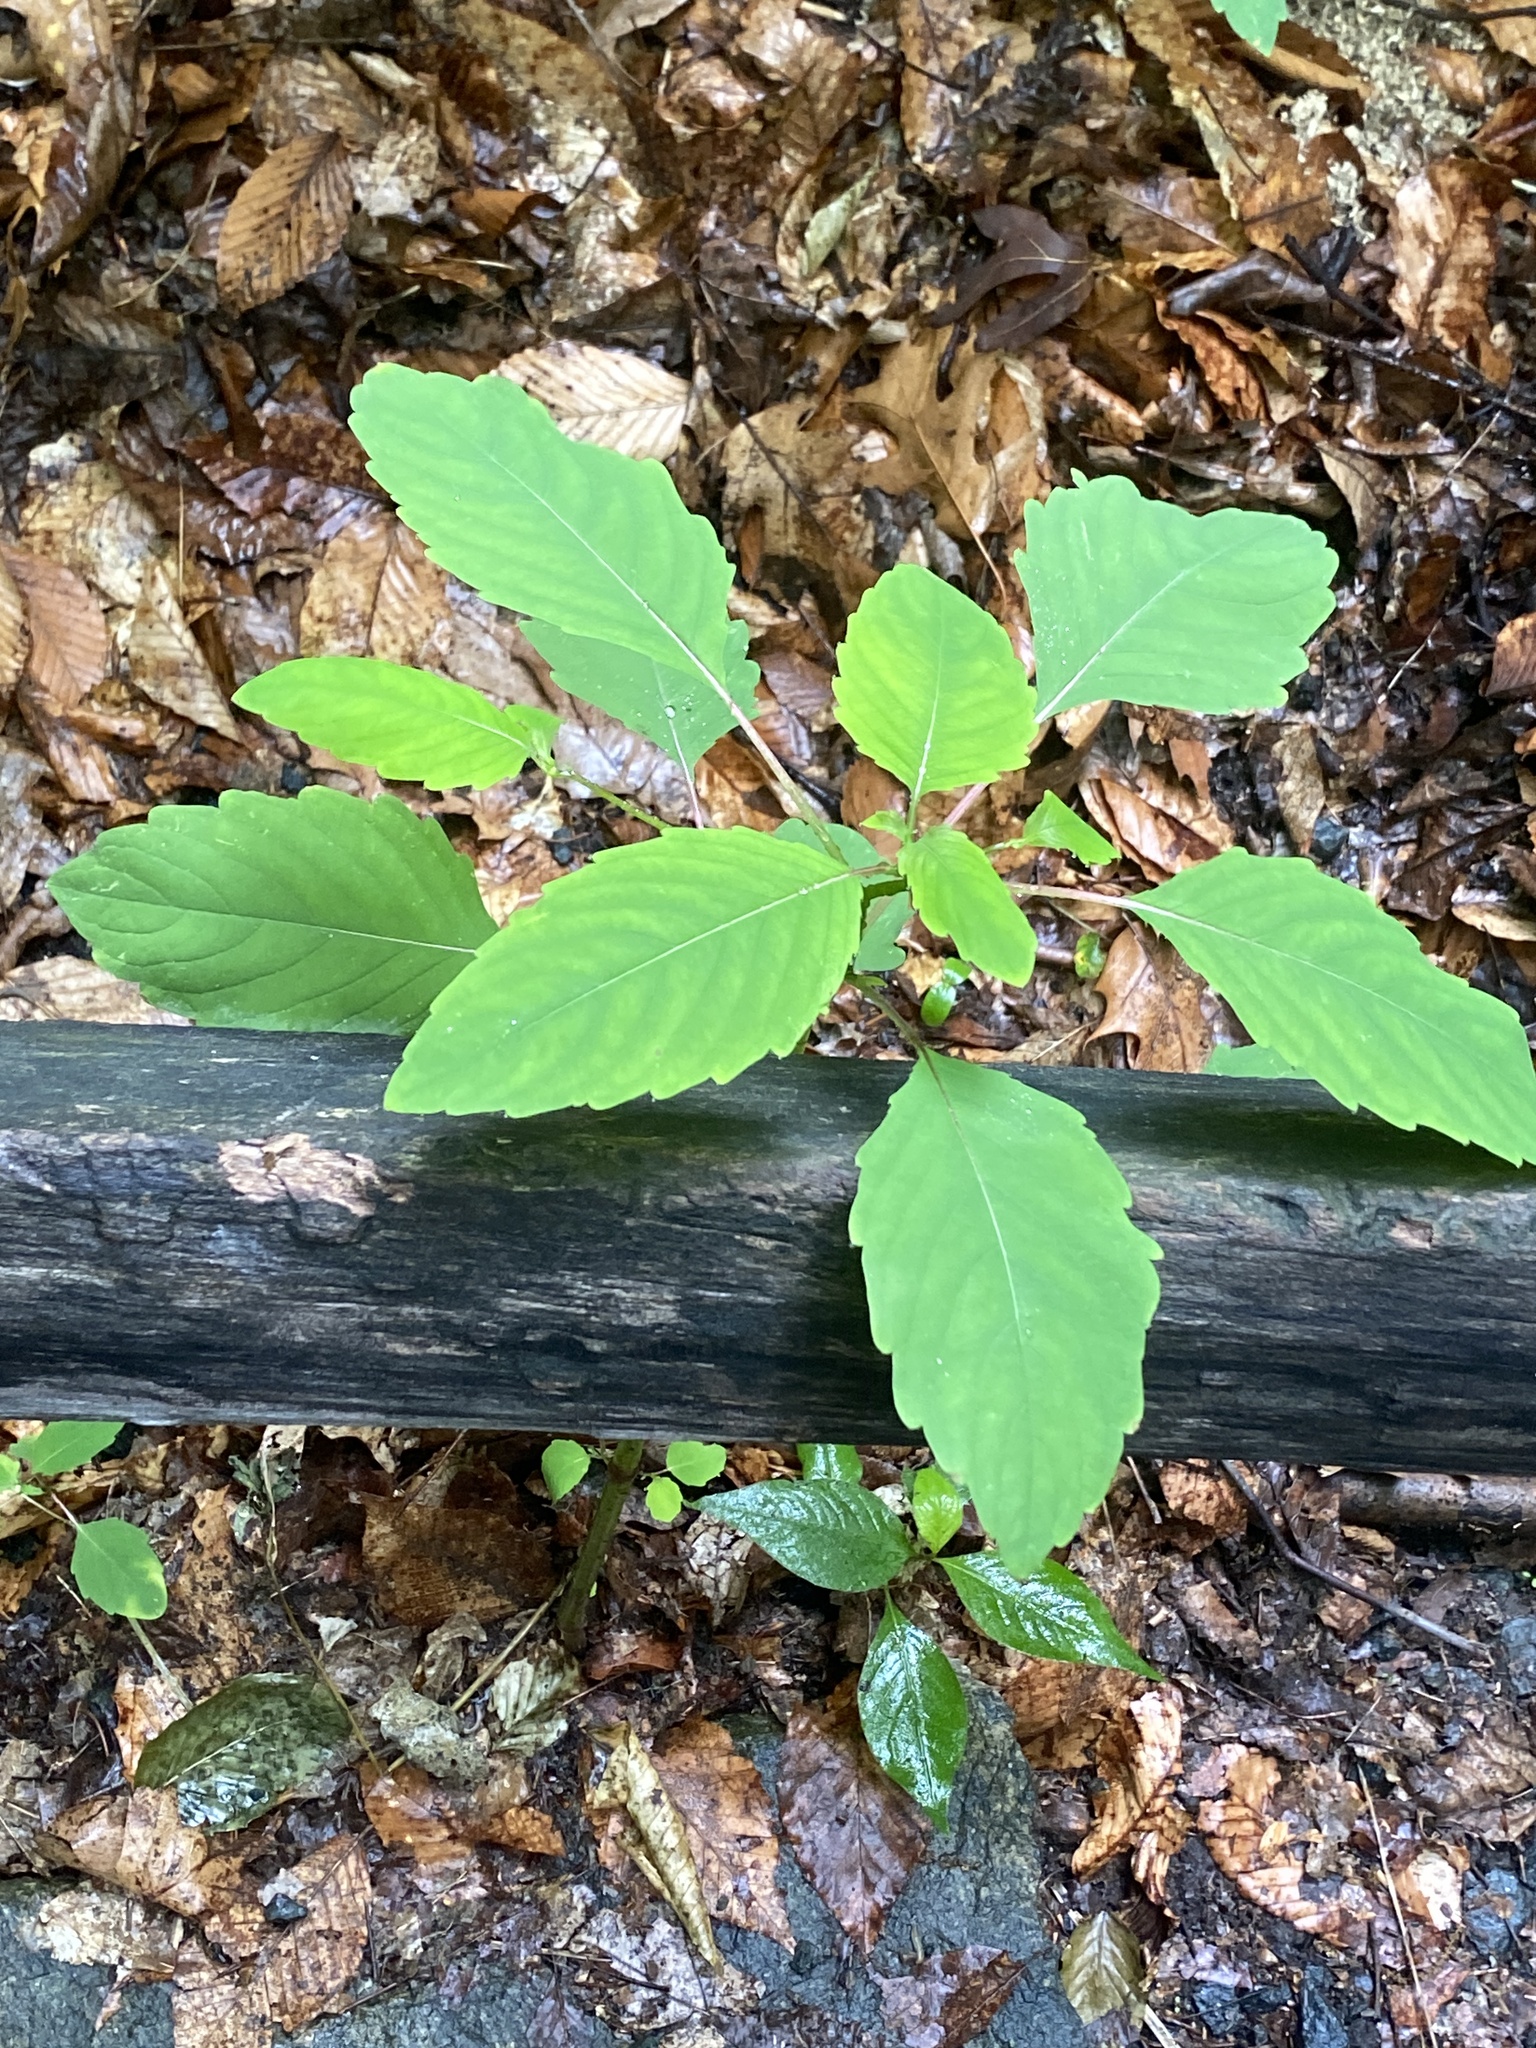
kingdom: Plantae
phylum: Tracheophyta
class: Magnoliopsida
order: Ericales
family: Balsaminaceae
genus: Impatiens
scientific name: Impatiens capensis
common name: Orange balsam
